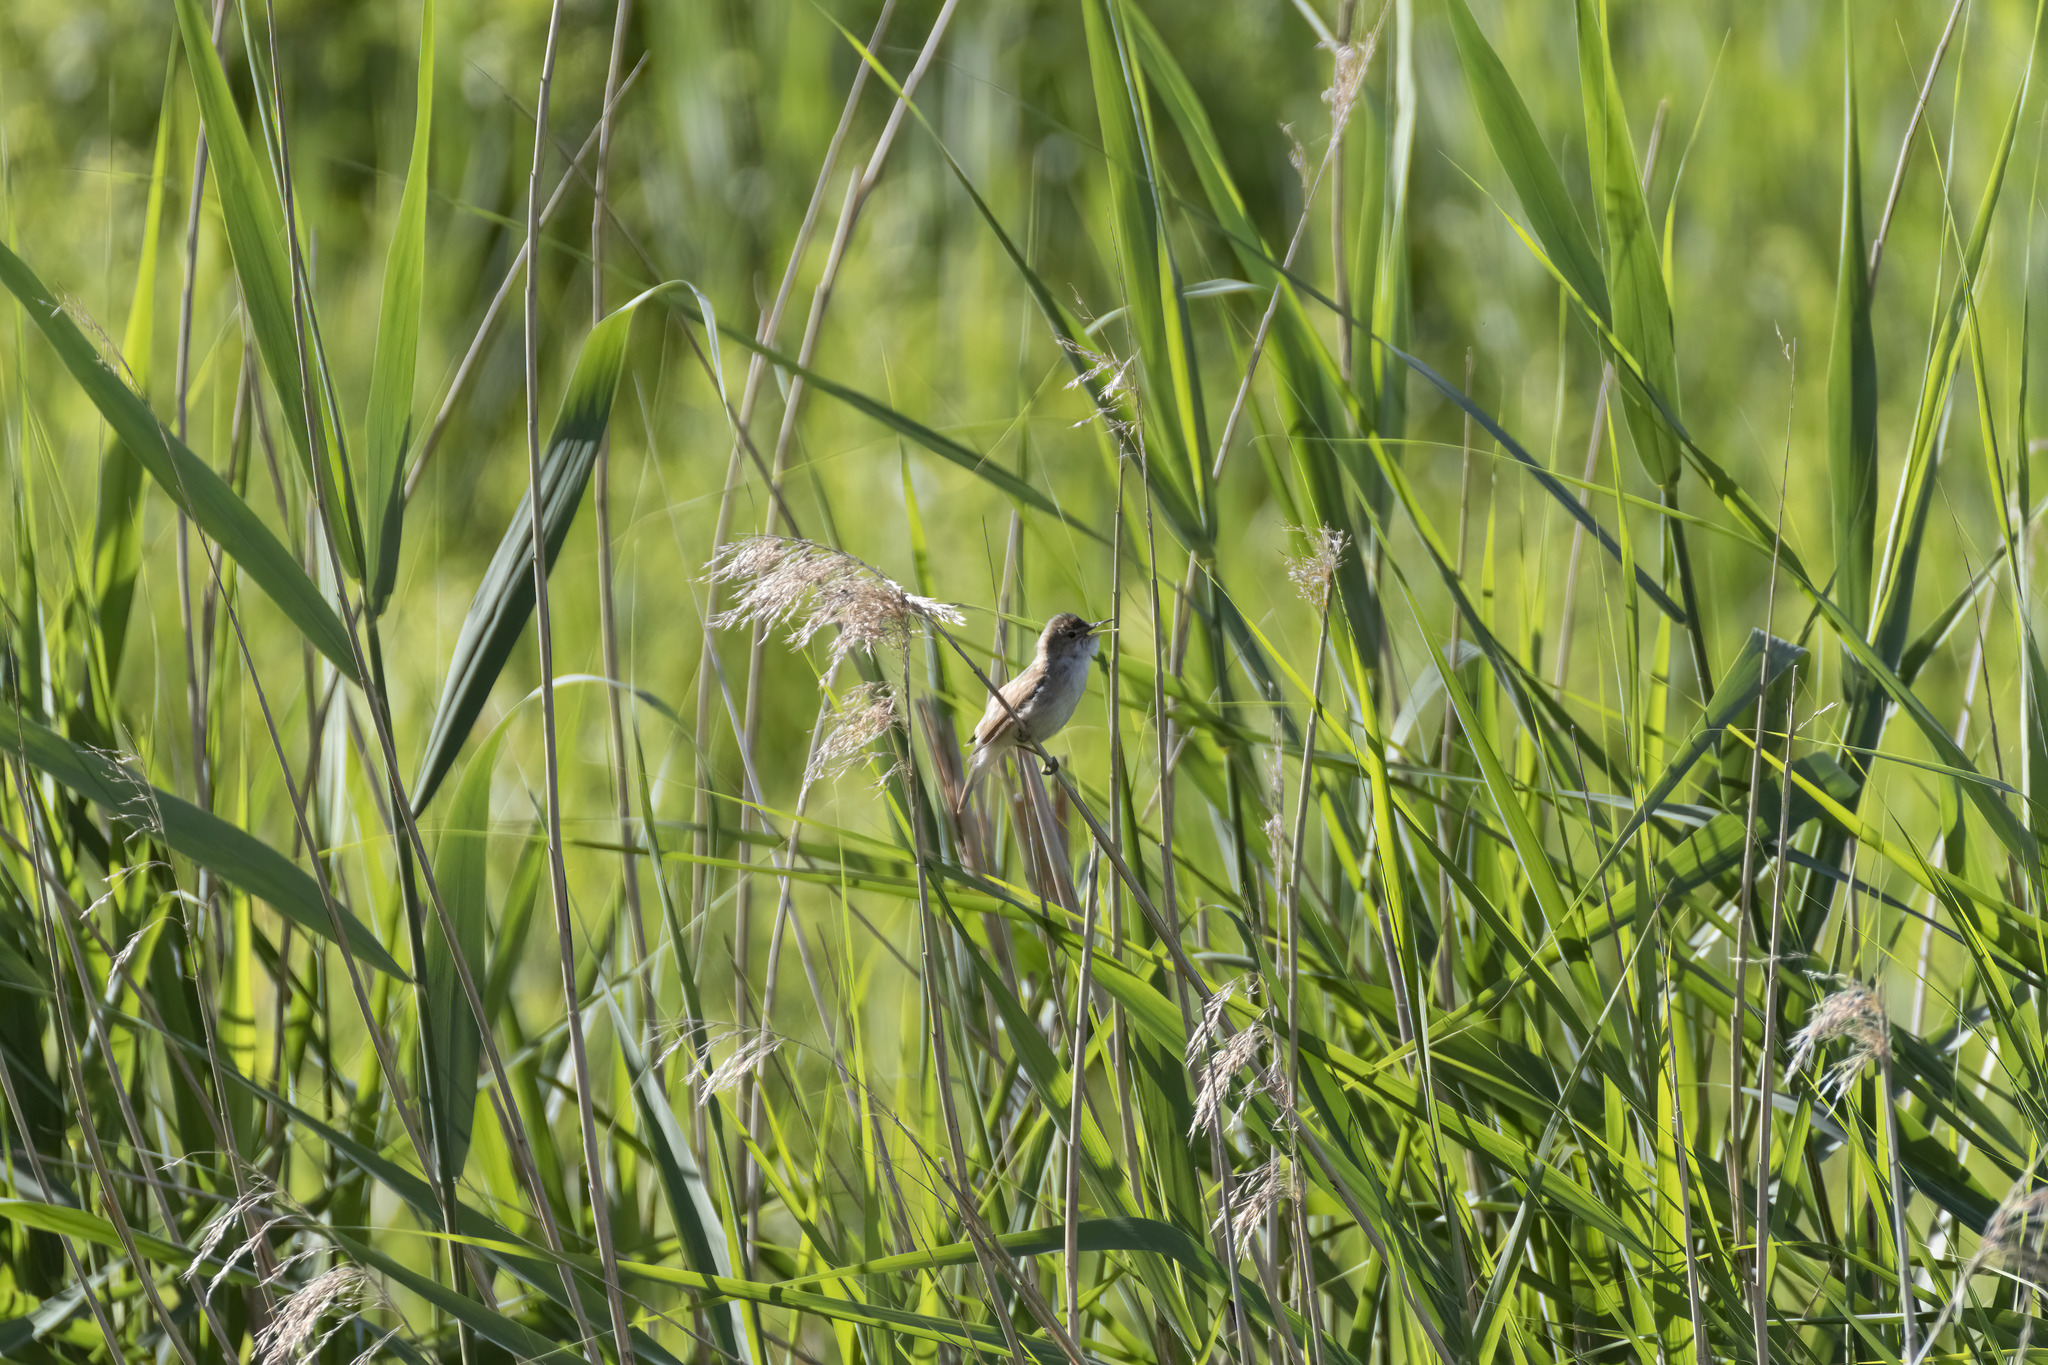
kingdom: Animalia
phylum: Chordata
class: Aves
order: Passeriformes
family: Acrocephalidae
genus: Acrocephalus
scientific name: Acrocephalus scirpaceus
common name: Eurasian reed warbler
